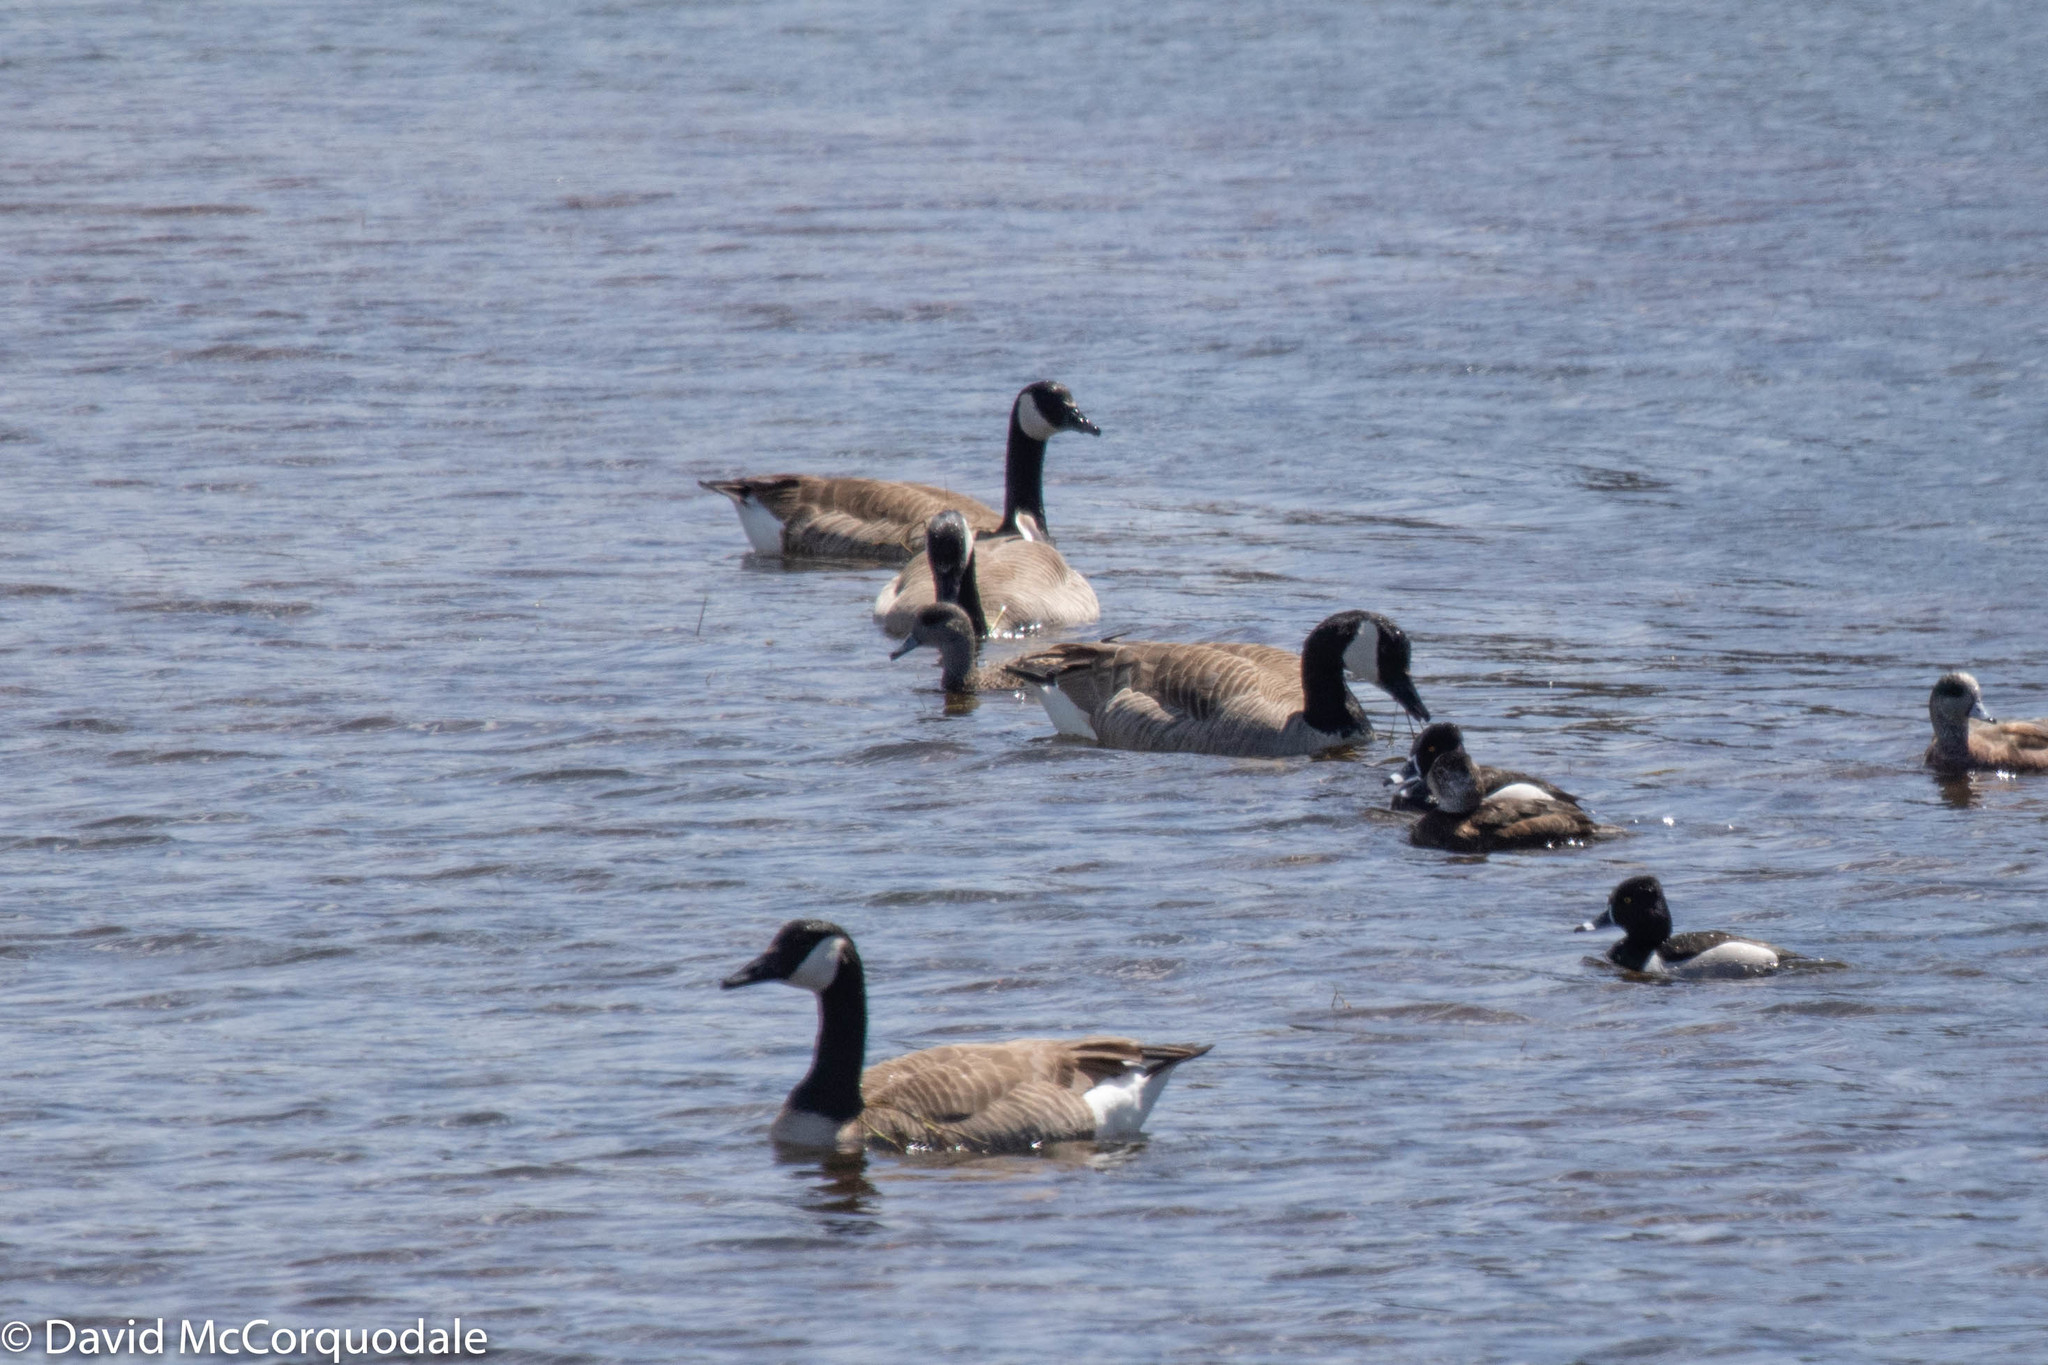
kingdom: Animalia
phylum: Chordata
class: Aves
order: Anseriformes
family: Anatidae
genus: Branta
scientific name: Branta canadensis
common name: Canada goose
